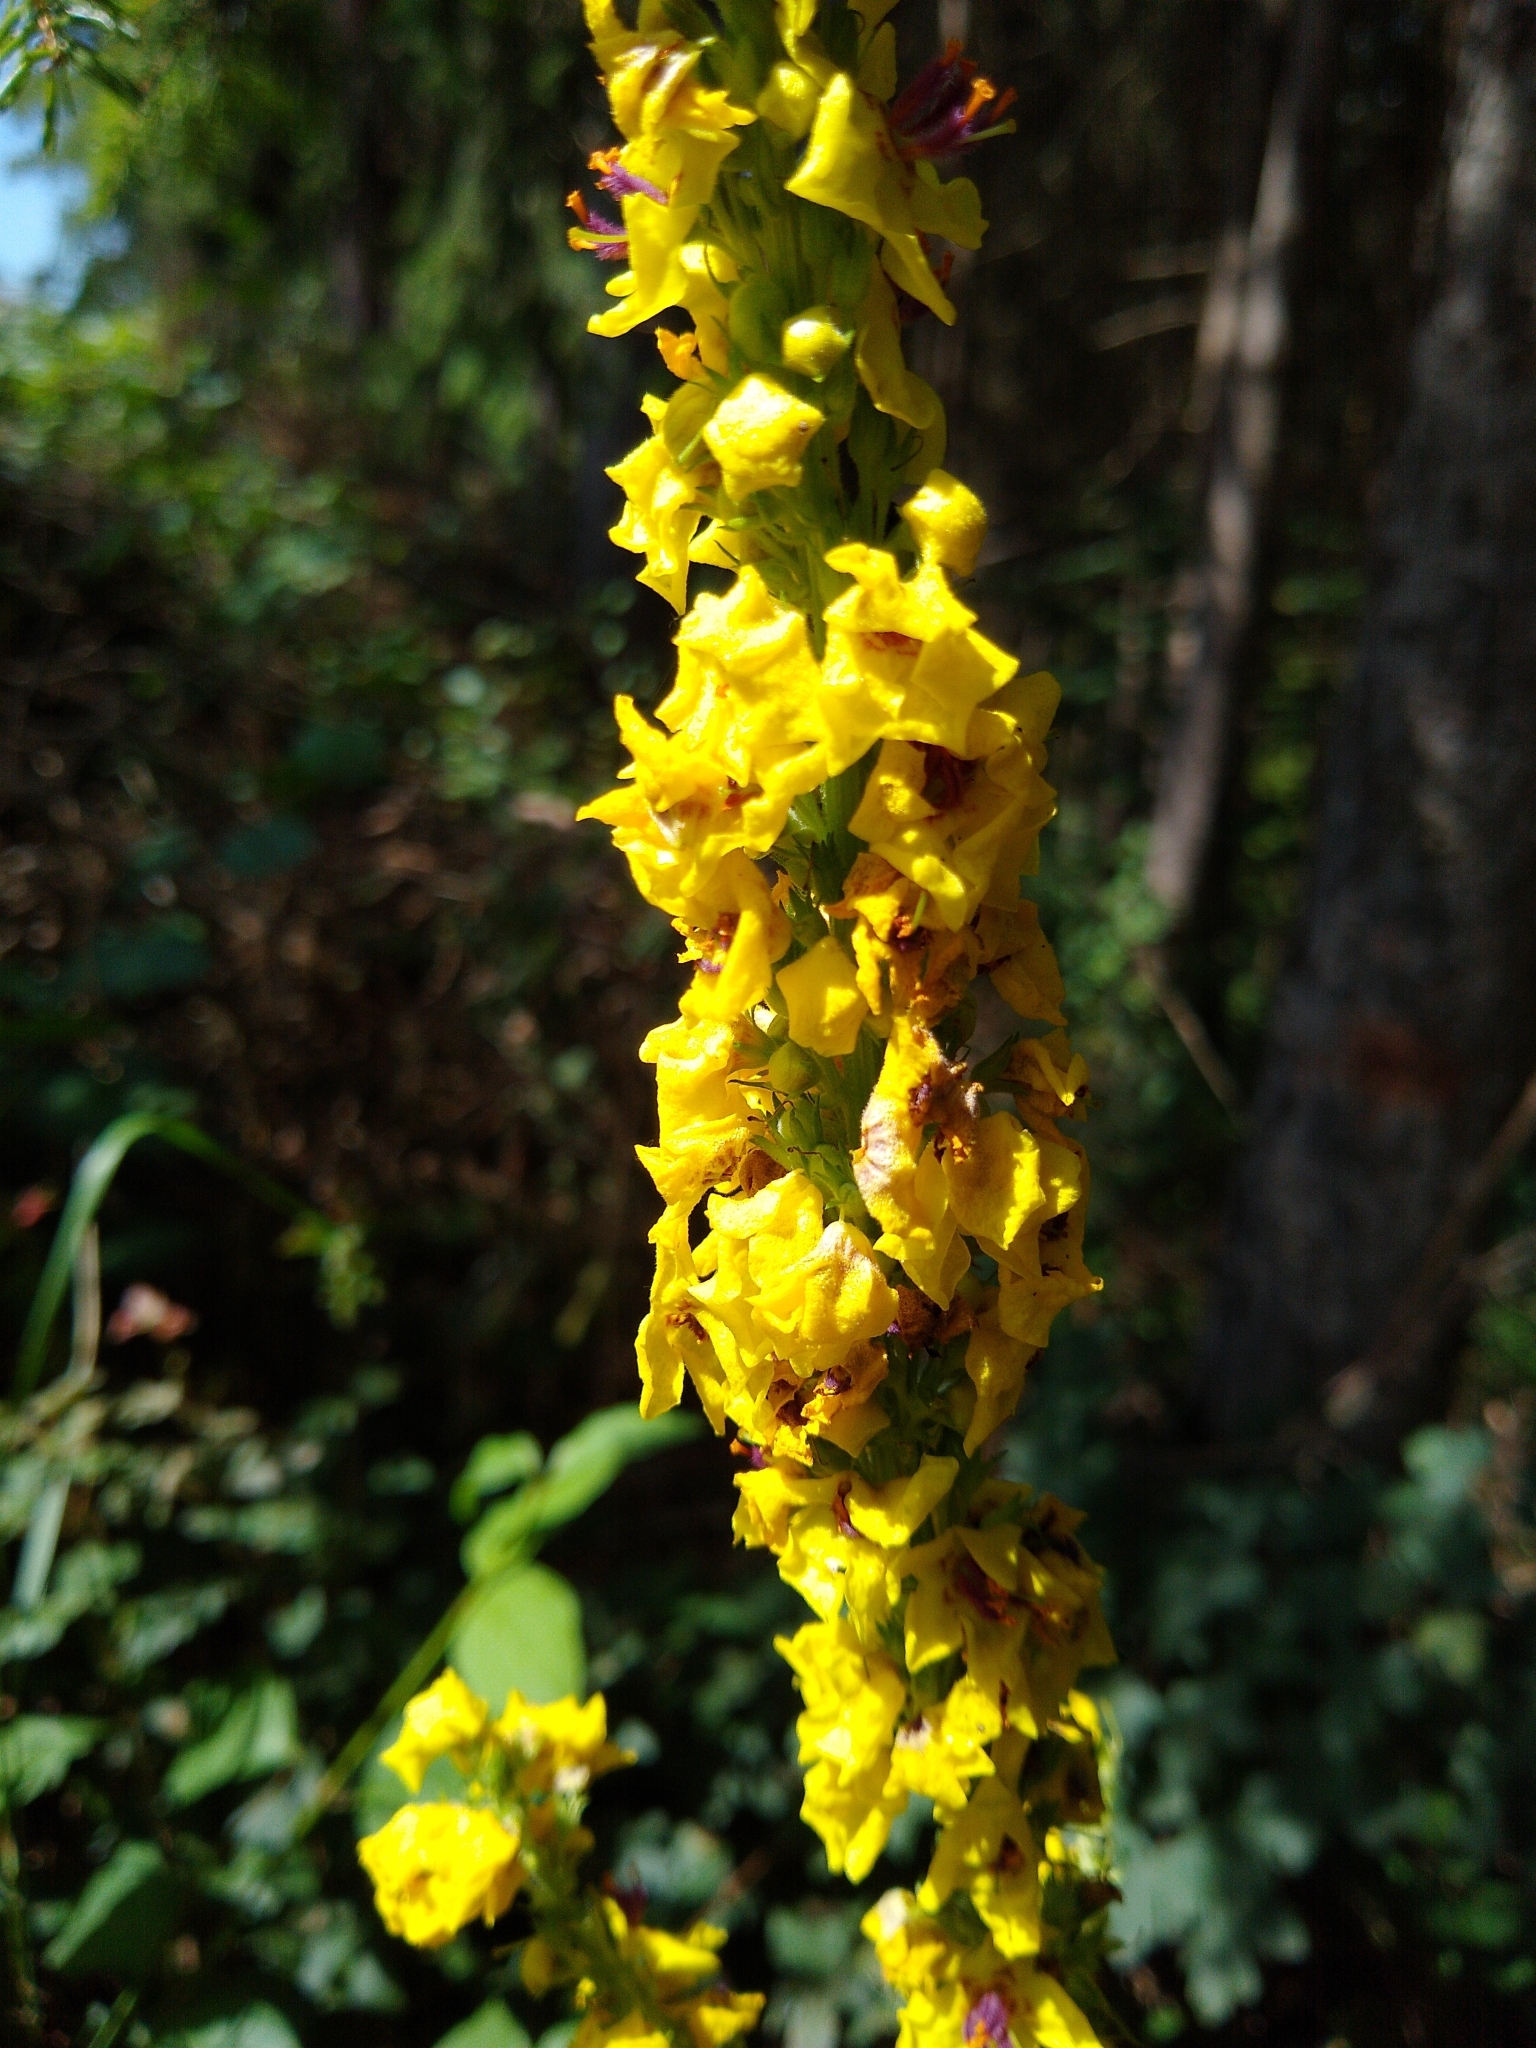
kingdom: Plantae
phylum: Tracheophyta
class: Magnoliopsida
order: Lamiales
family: Scrophulariaceae
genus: Verbascum
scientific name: Verbascum nigrum
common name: Dark mullein
